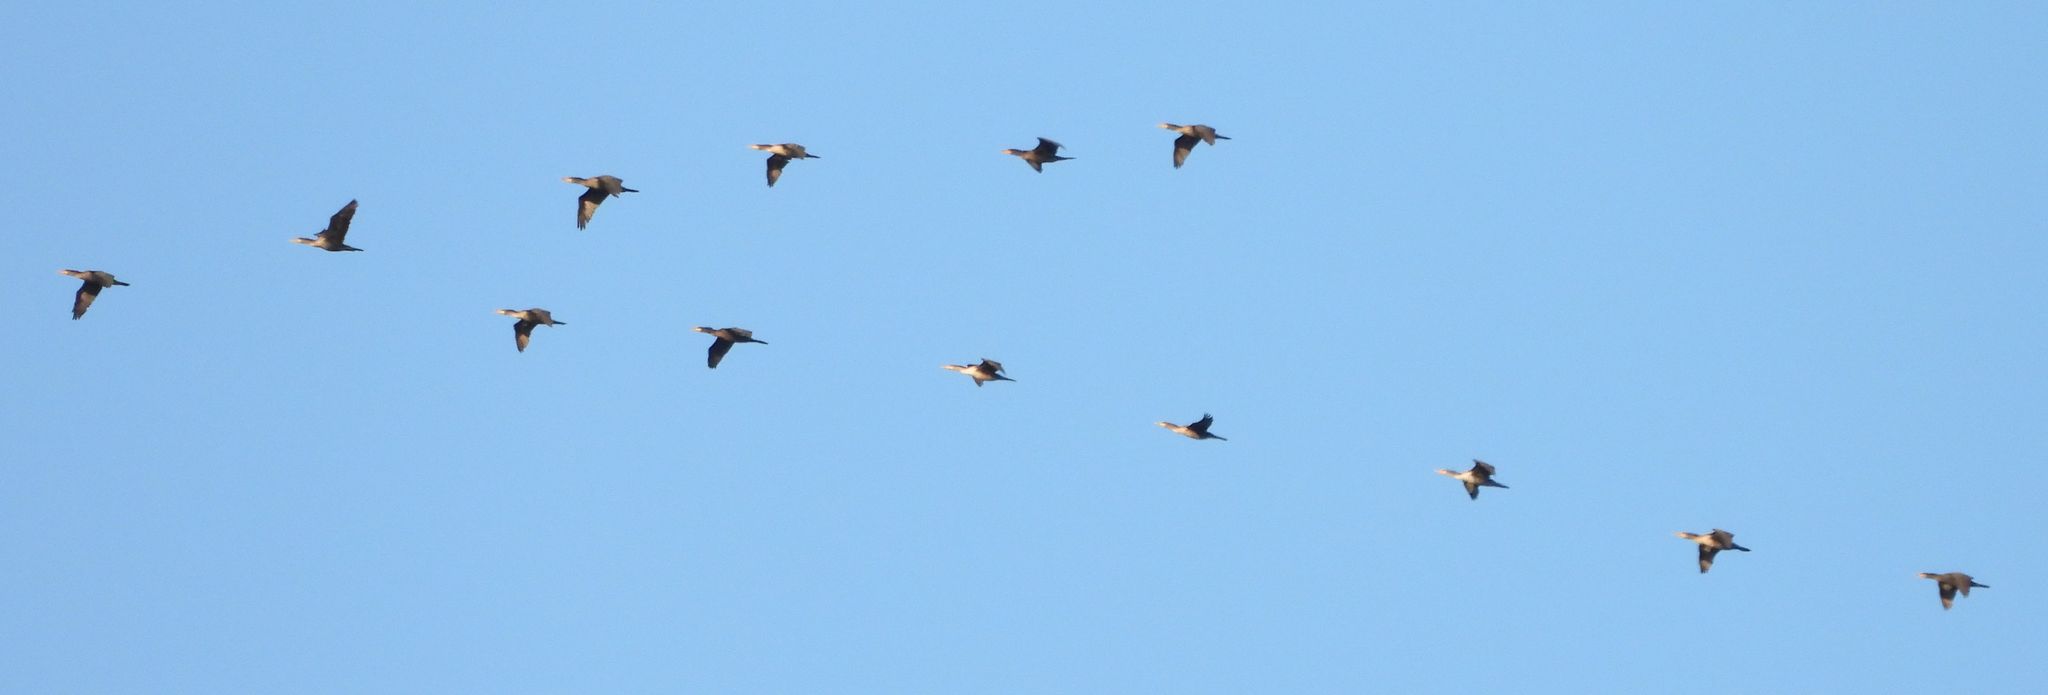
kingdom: Animalia
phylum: Chordata
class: Aves
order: Suliformes
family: Phalacrocoracidae
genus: Phalacrocorax
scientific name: Phalacrocorax auritus
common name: Double-crested cormorant
